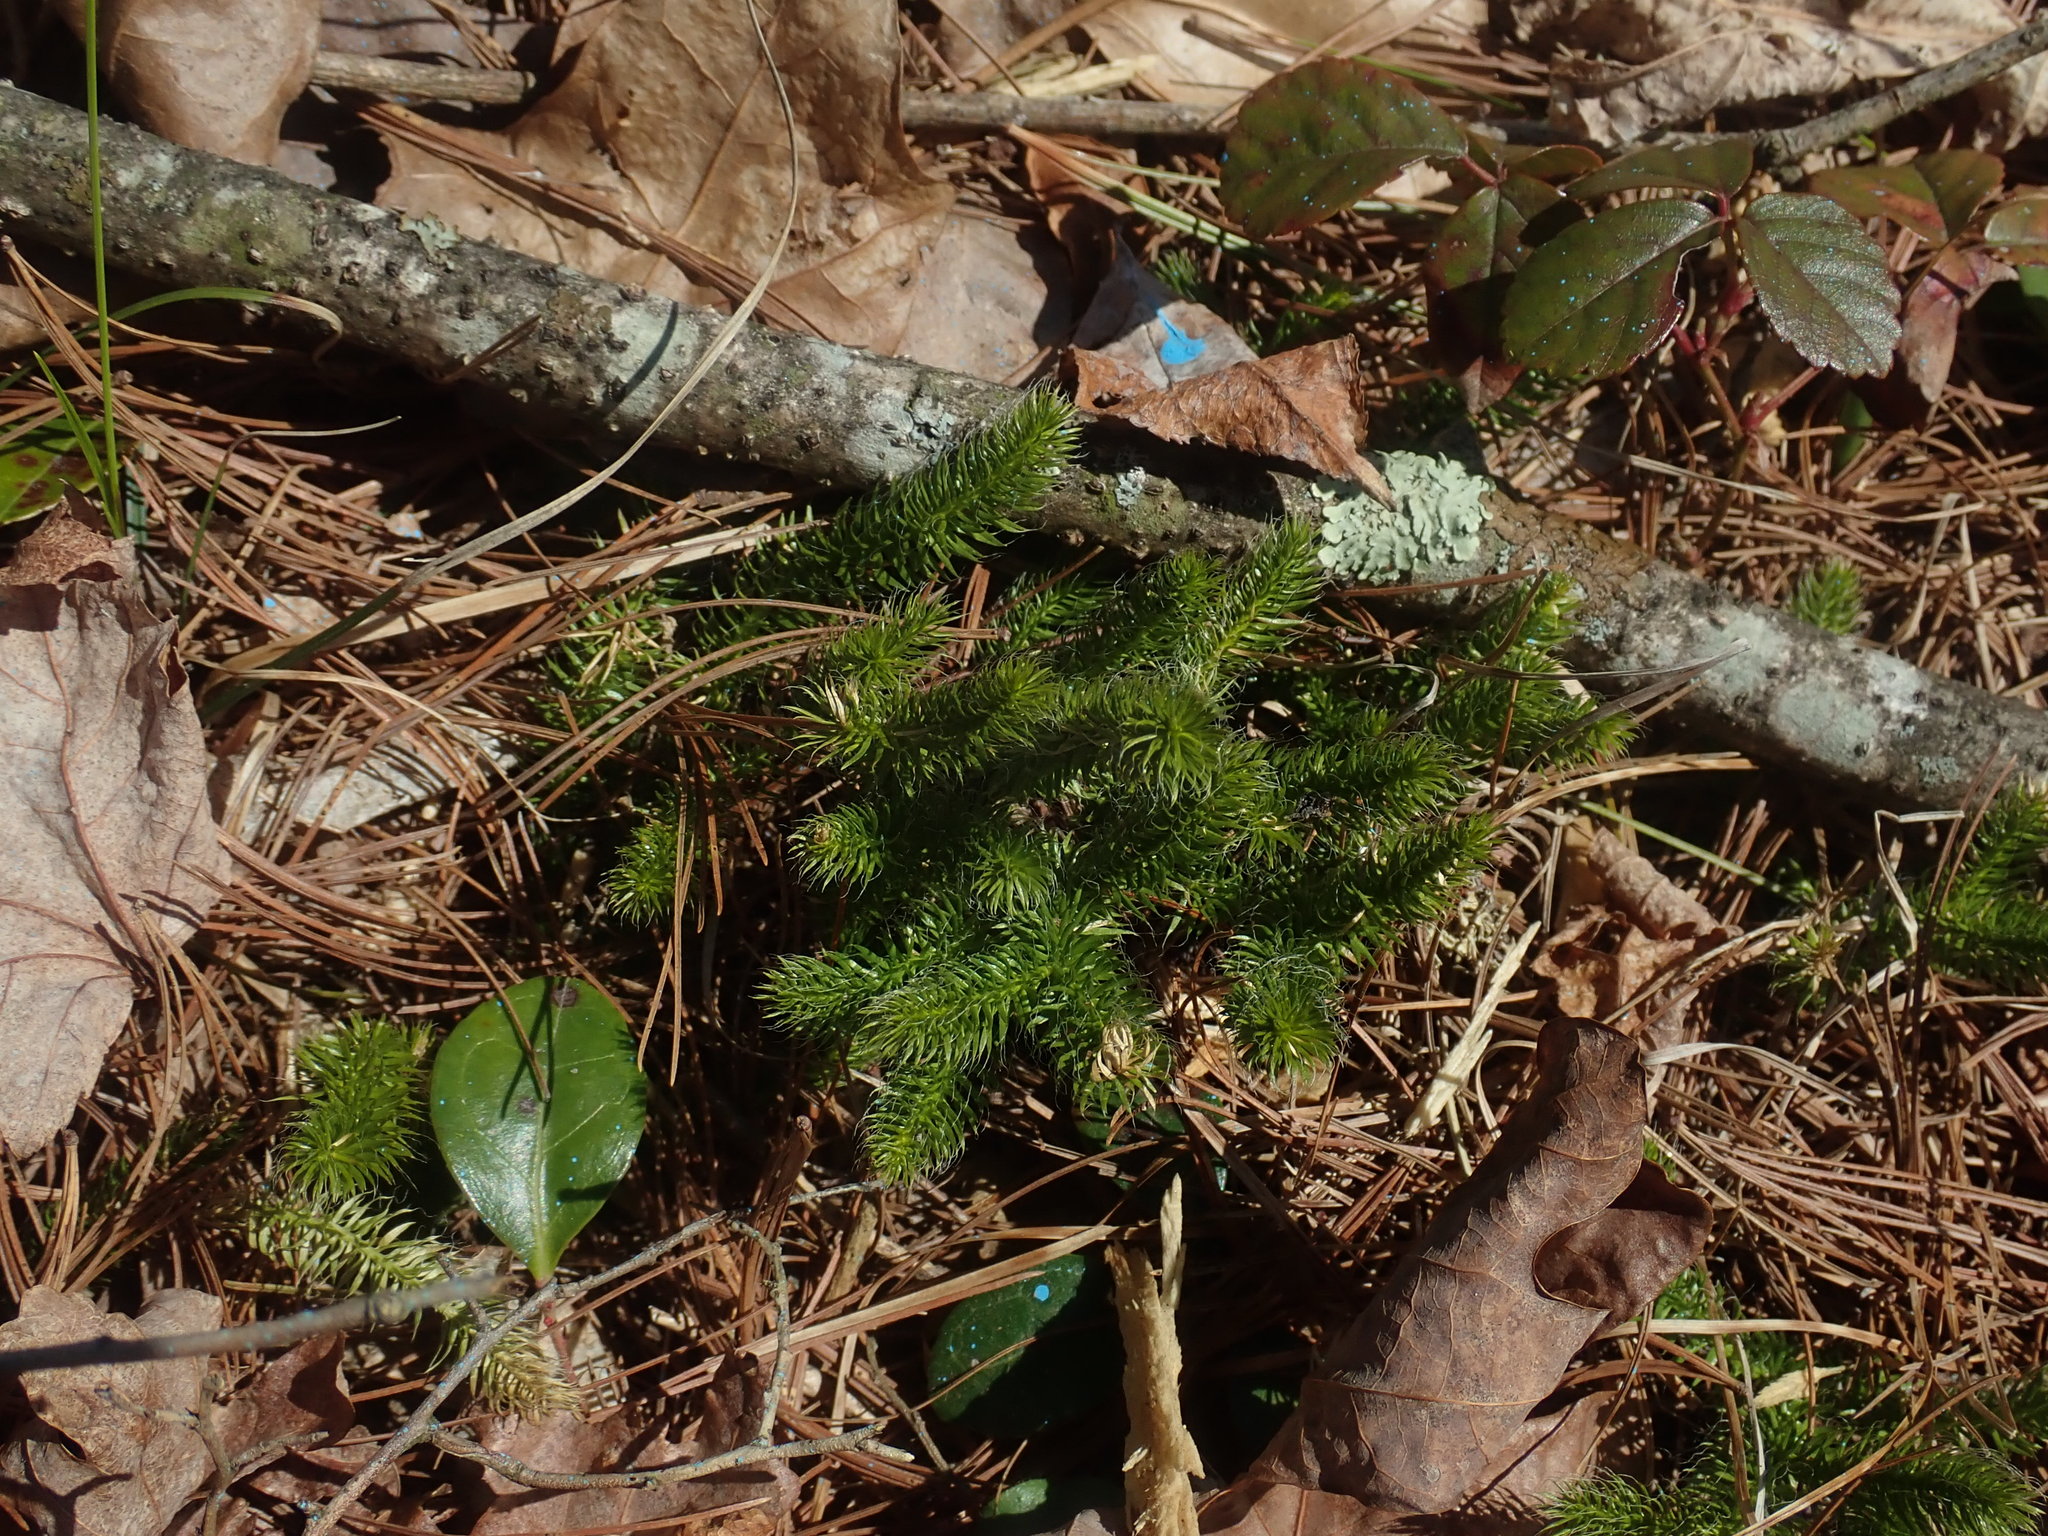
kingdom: Plantae
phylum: Tracheophyta
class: Lycopodiopsida
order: Lycopodiales
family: Lycopodiaceae
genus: Lycopodium
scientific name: Lycopodium clavatum
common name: Stag's-horn clubmoss
